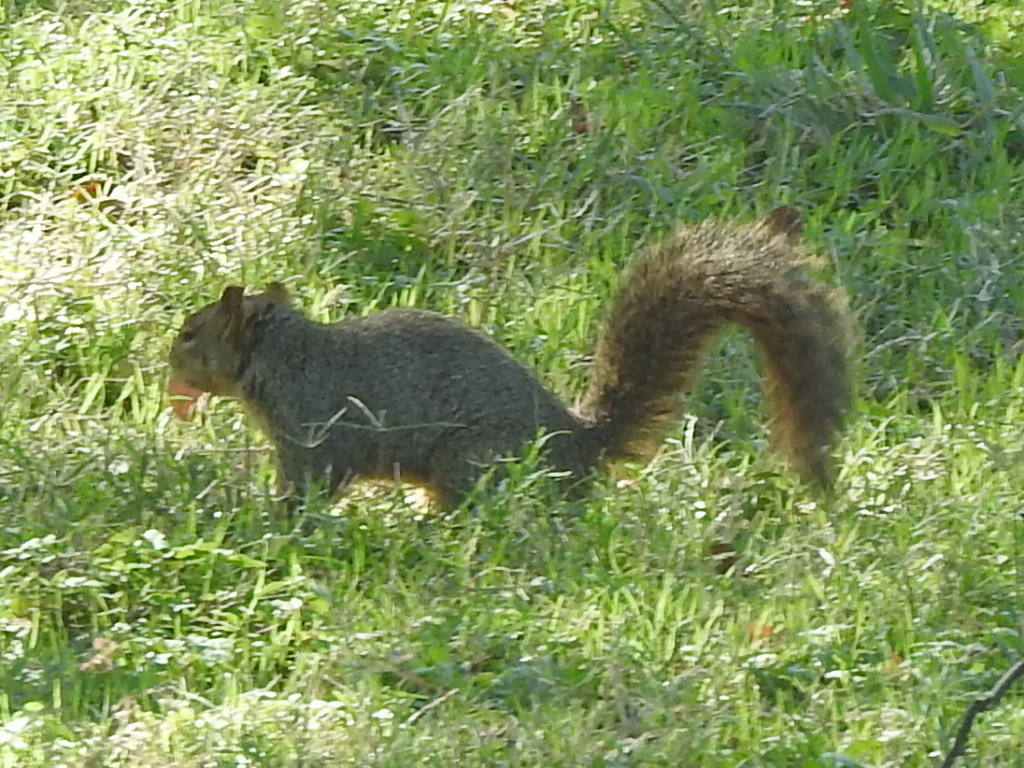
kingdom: Animalia
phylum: Chordata
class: Mammalia
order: Rodentia
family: Sciuridae
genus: Sciurus
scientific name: Sciurus niger
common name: Fox squirrel
